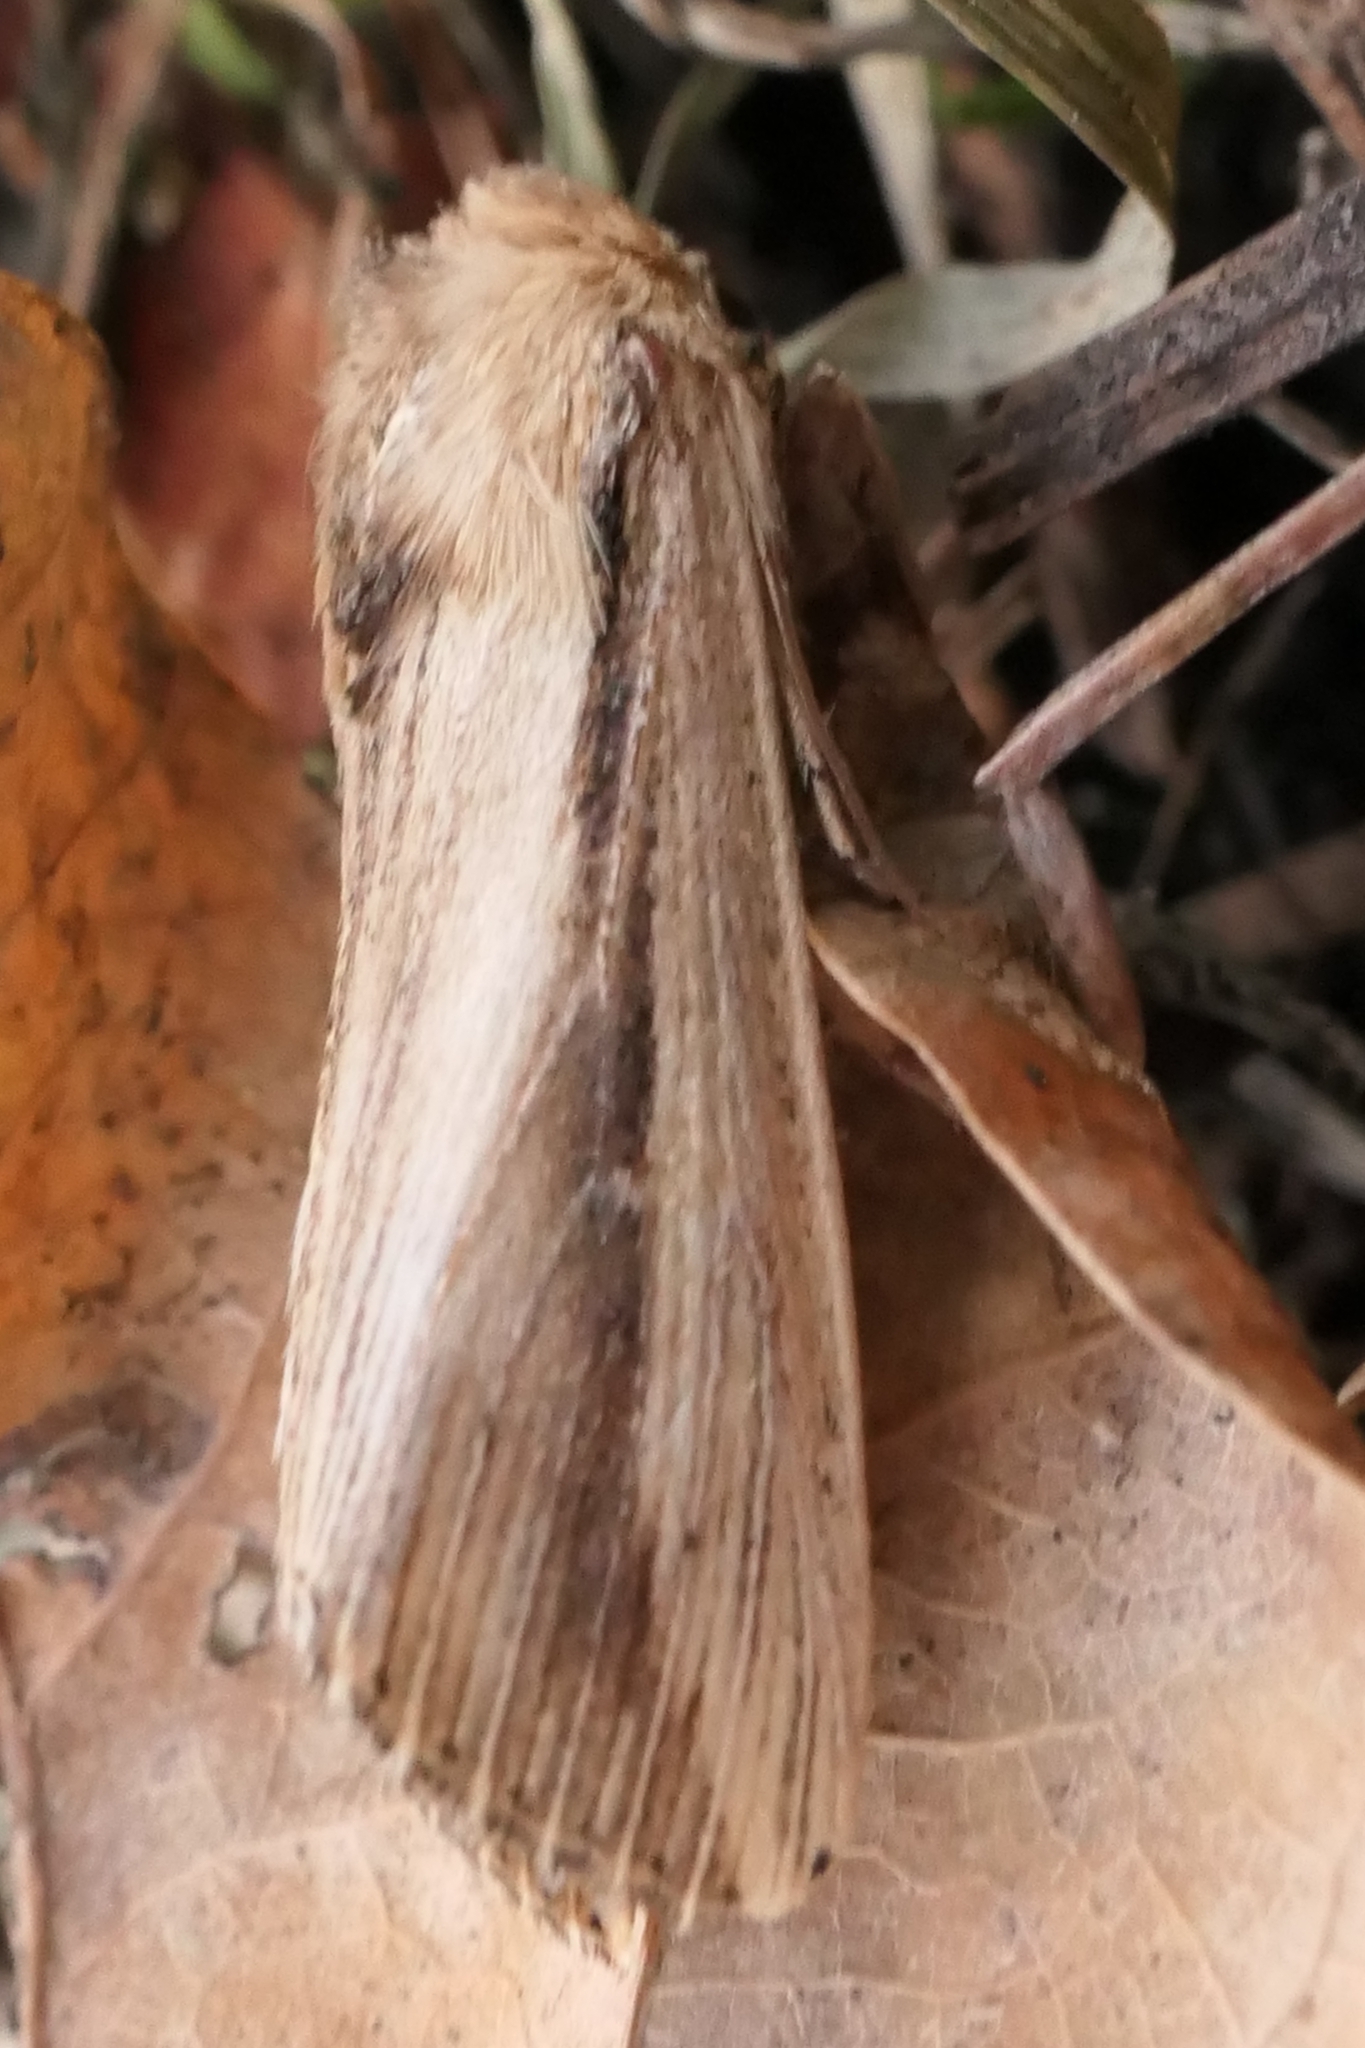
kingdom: Animalia
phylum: Arthropoda
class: Insecta
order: Lepidoptera
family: Noctuidae
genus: Leucania
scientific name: Leucania stenographa
